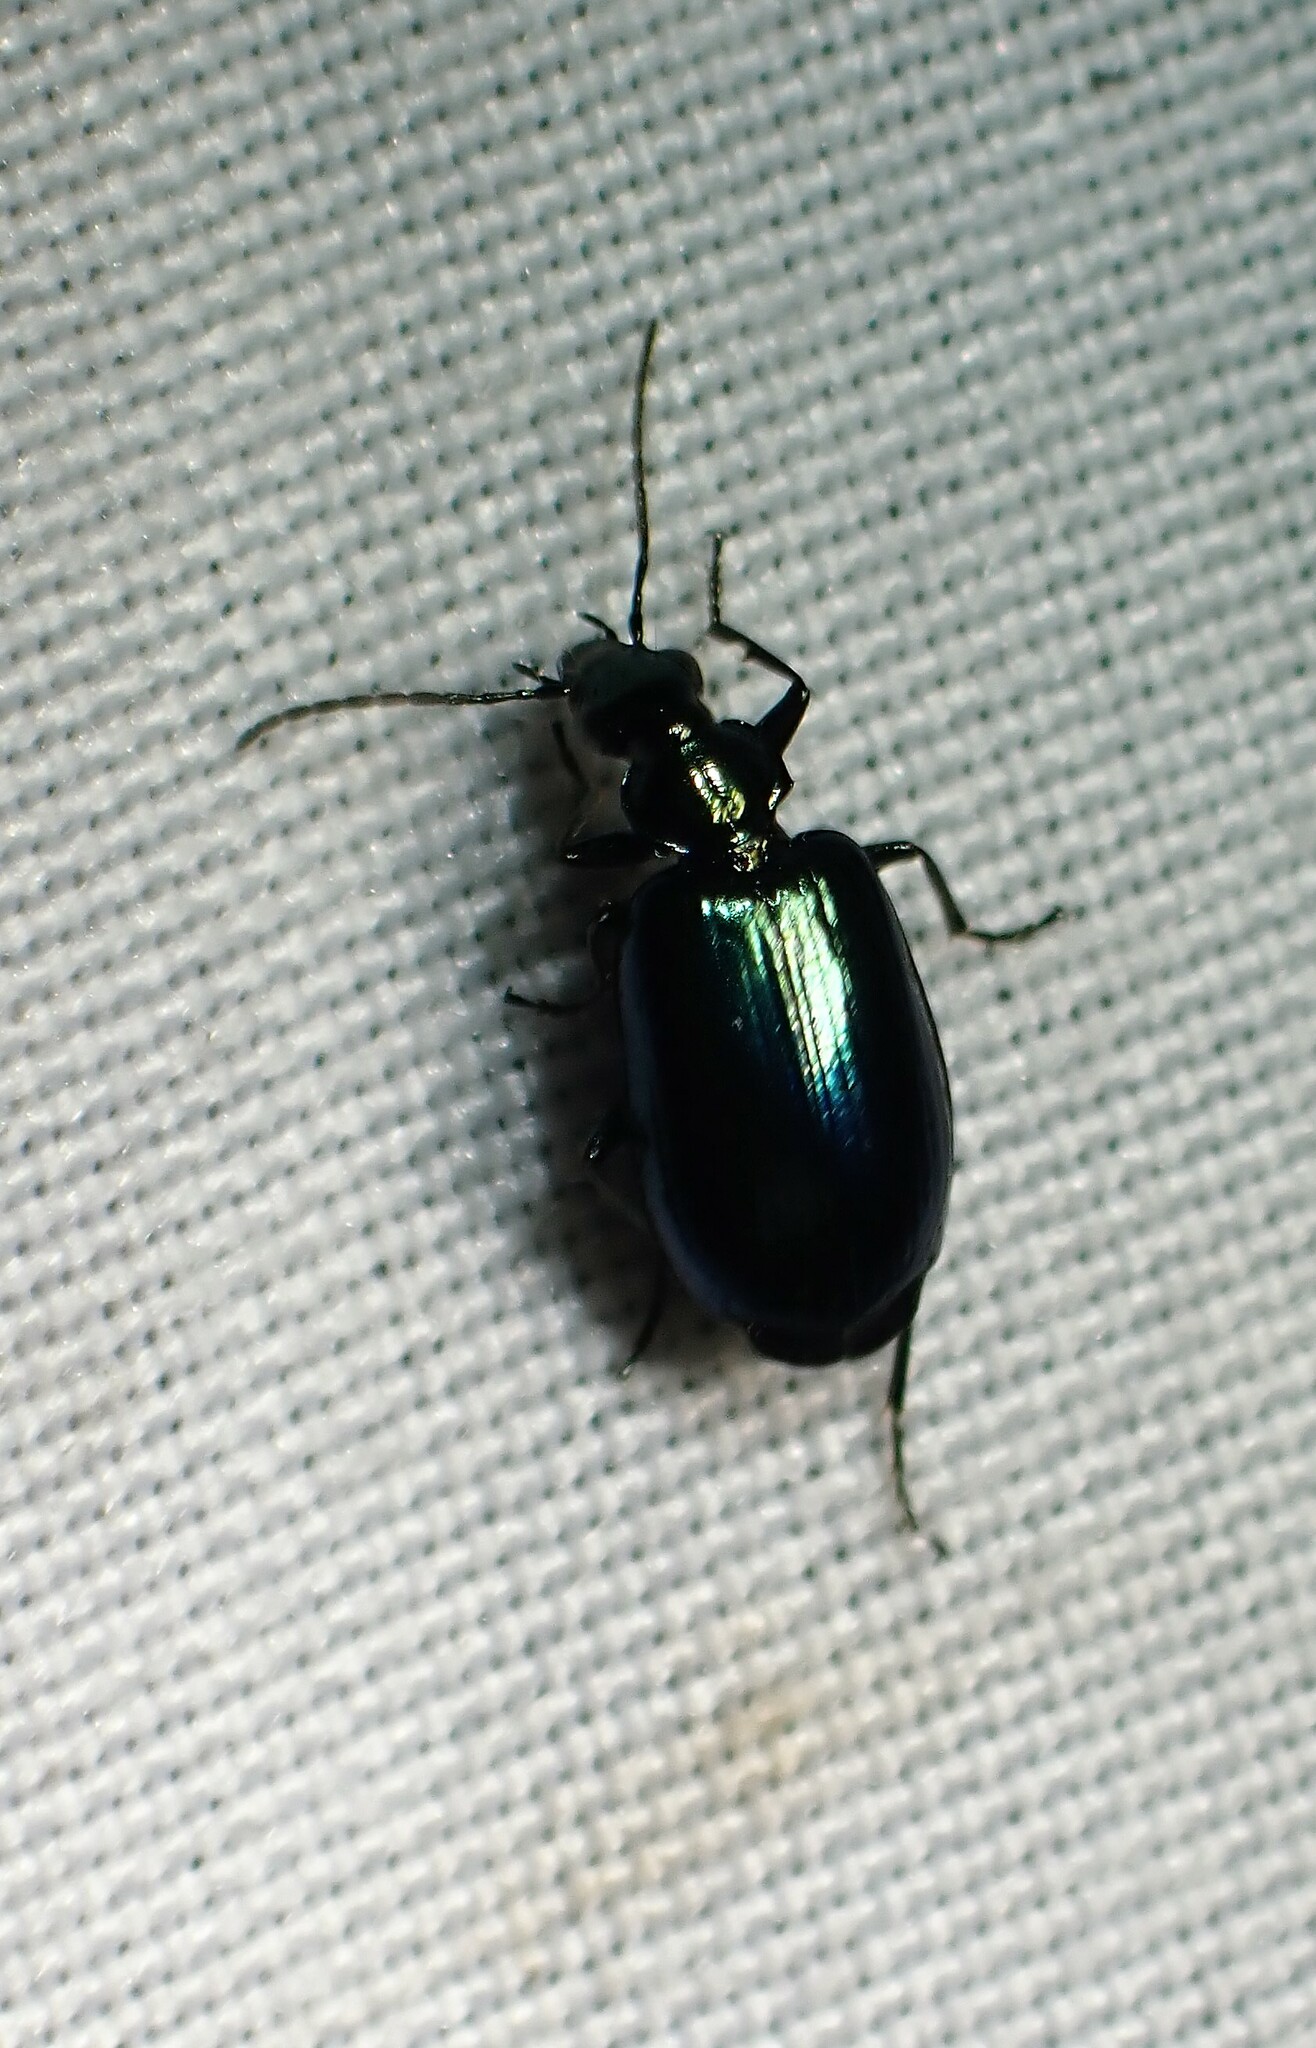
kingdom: Animalia
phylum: Arthropoda
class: Insecta
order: Coleoptera
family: Carabidae
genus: Lebia
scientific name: Lebia viridis
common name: Flower lebia beetle
